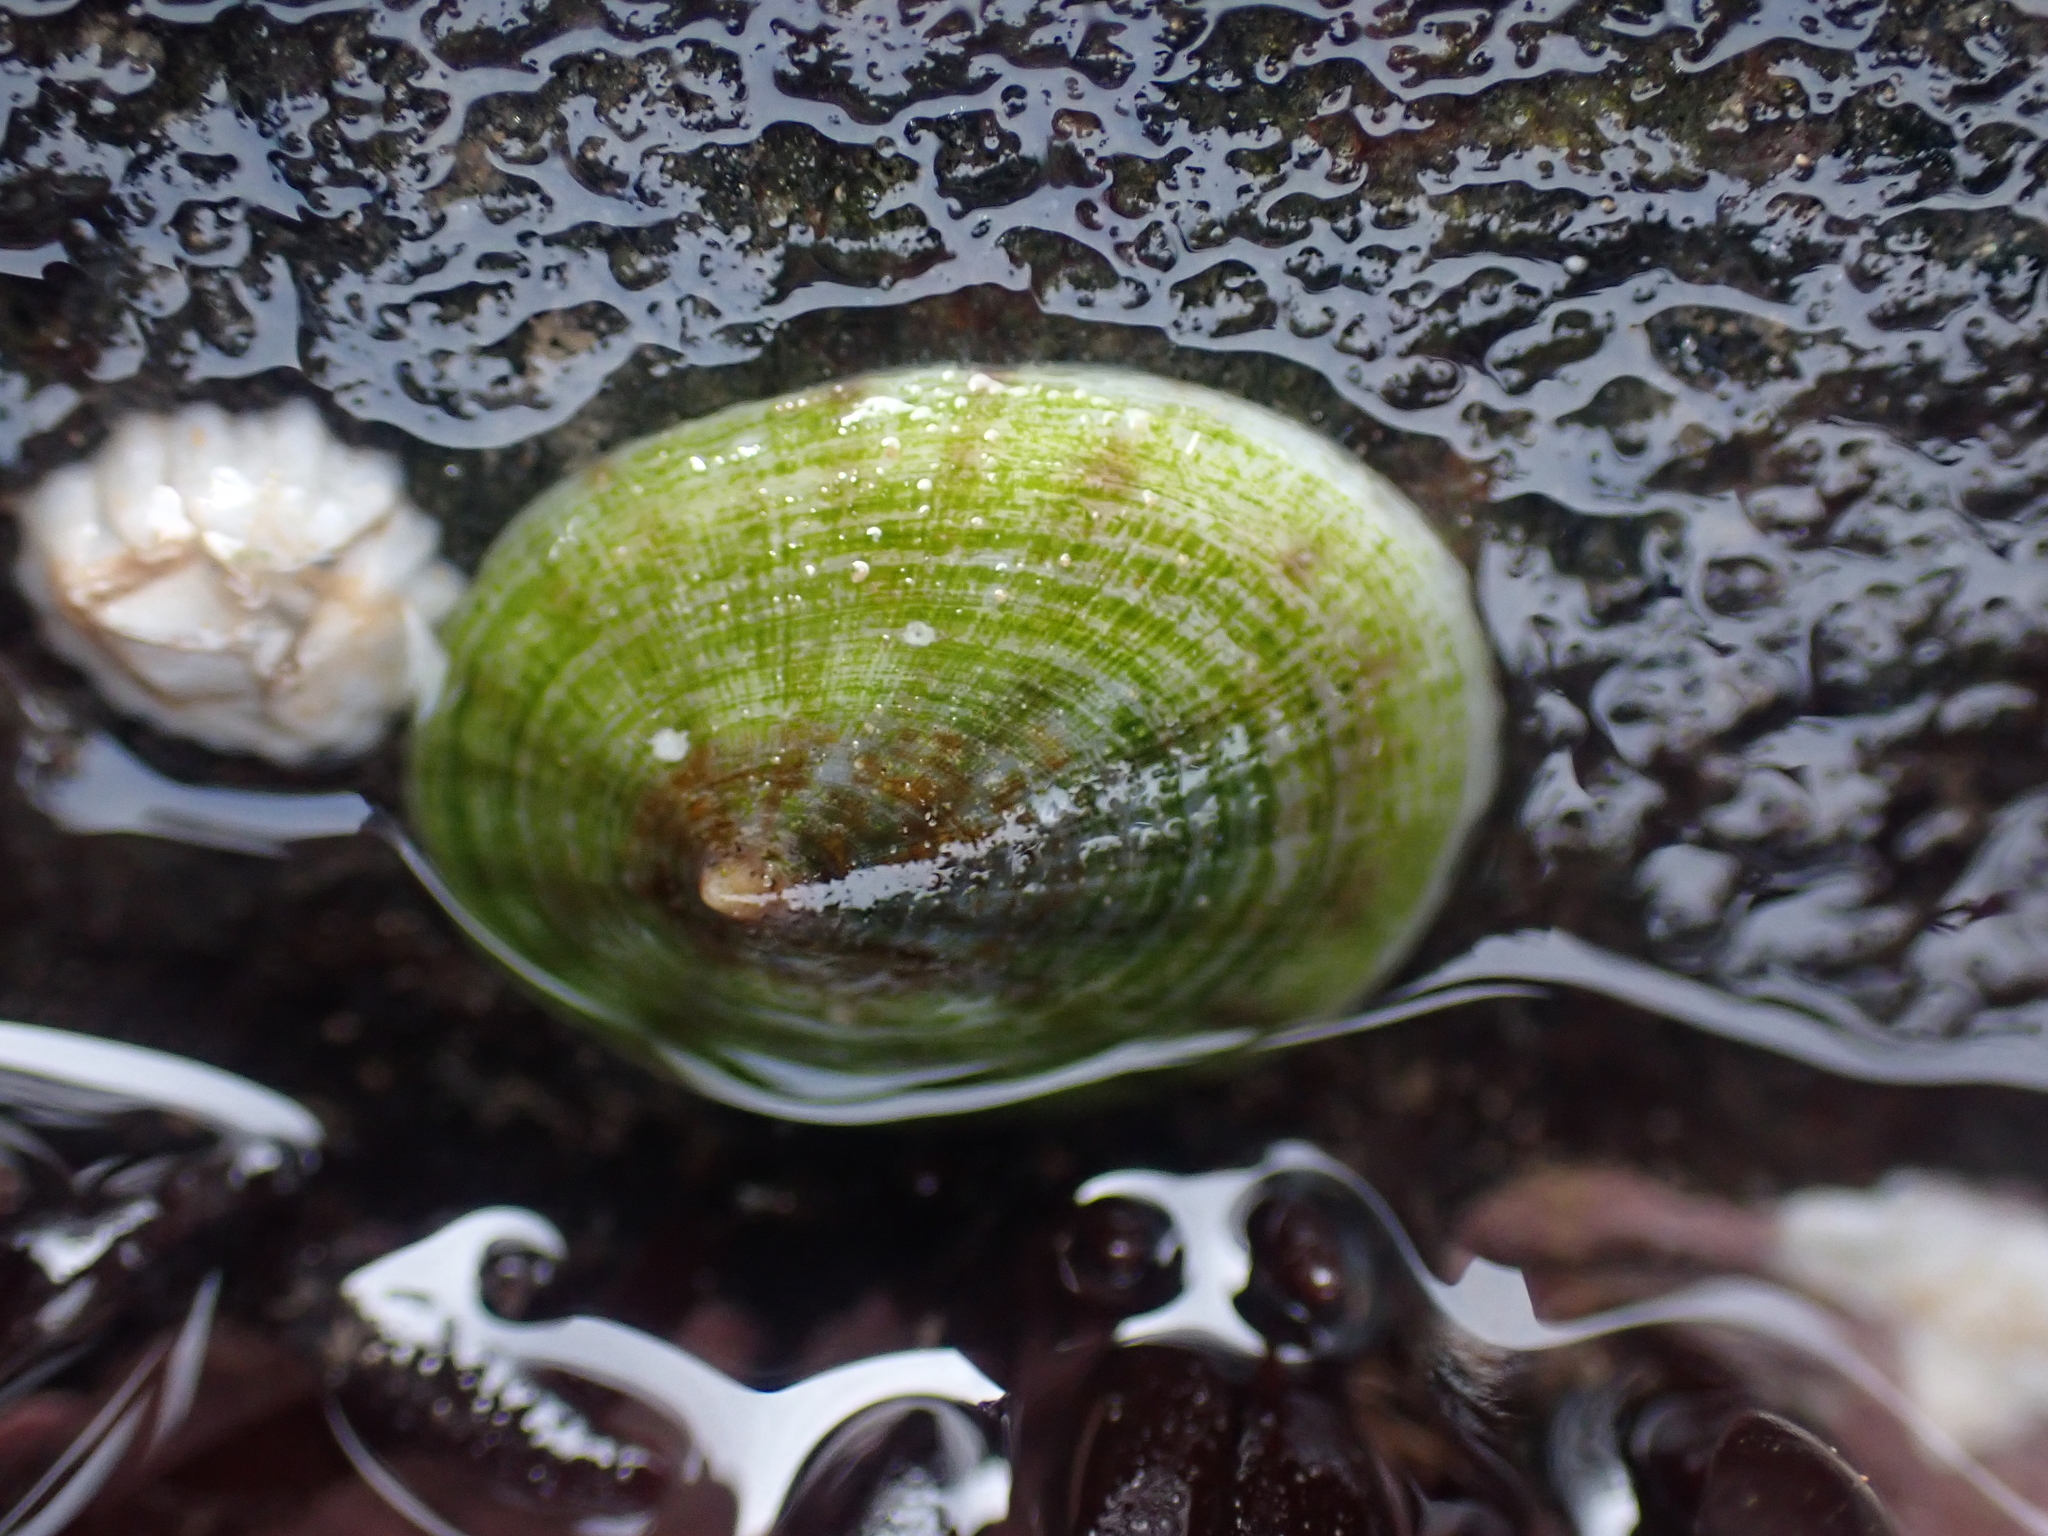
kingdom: Animalia
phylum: Mollusca
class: Gastropoda
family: Lottiidae
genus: Testudinalia
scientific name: Testudinalia testudinalis
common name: Common tortoiseshell limpet
